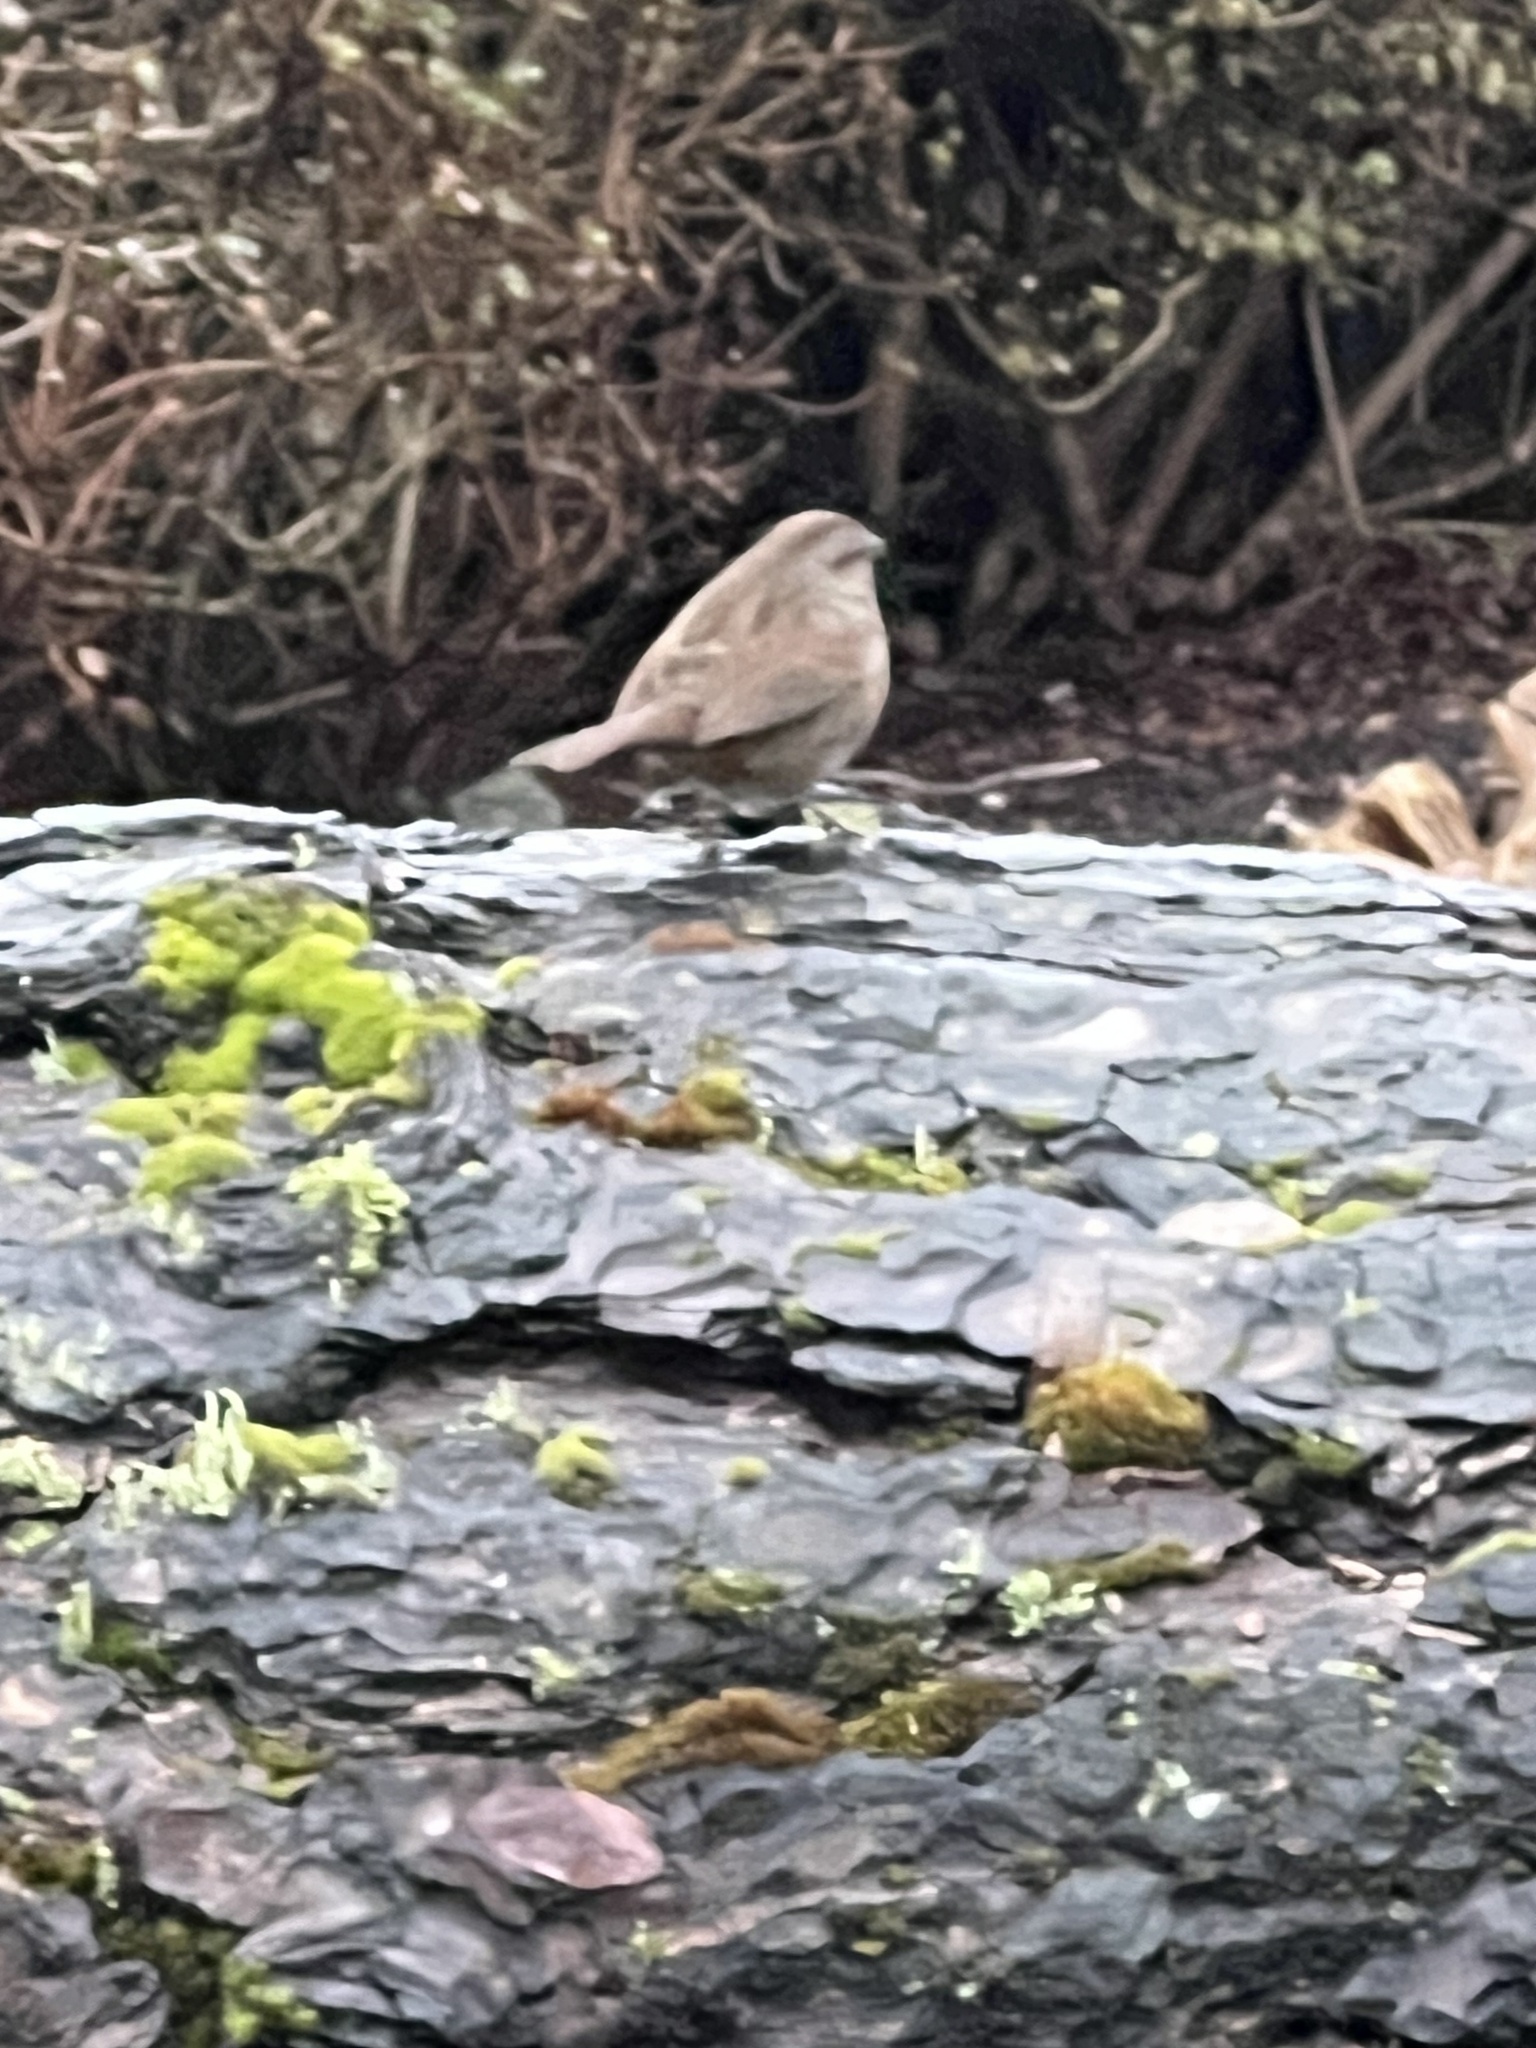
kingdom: Animalia
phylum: Chordata
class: Aves
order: Passeriformes
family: Passerellidae
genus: Melospiza
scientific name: Melospiza melodia
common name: Song sparrow
